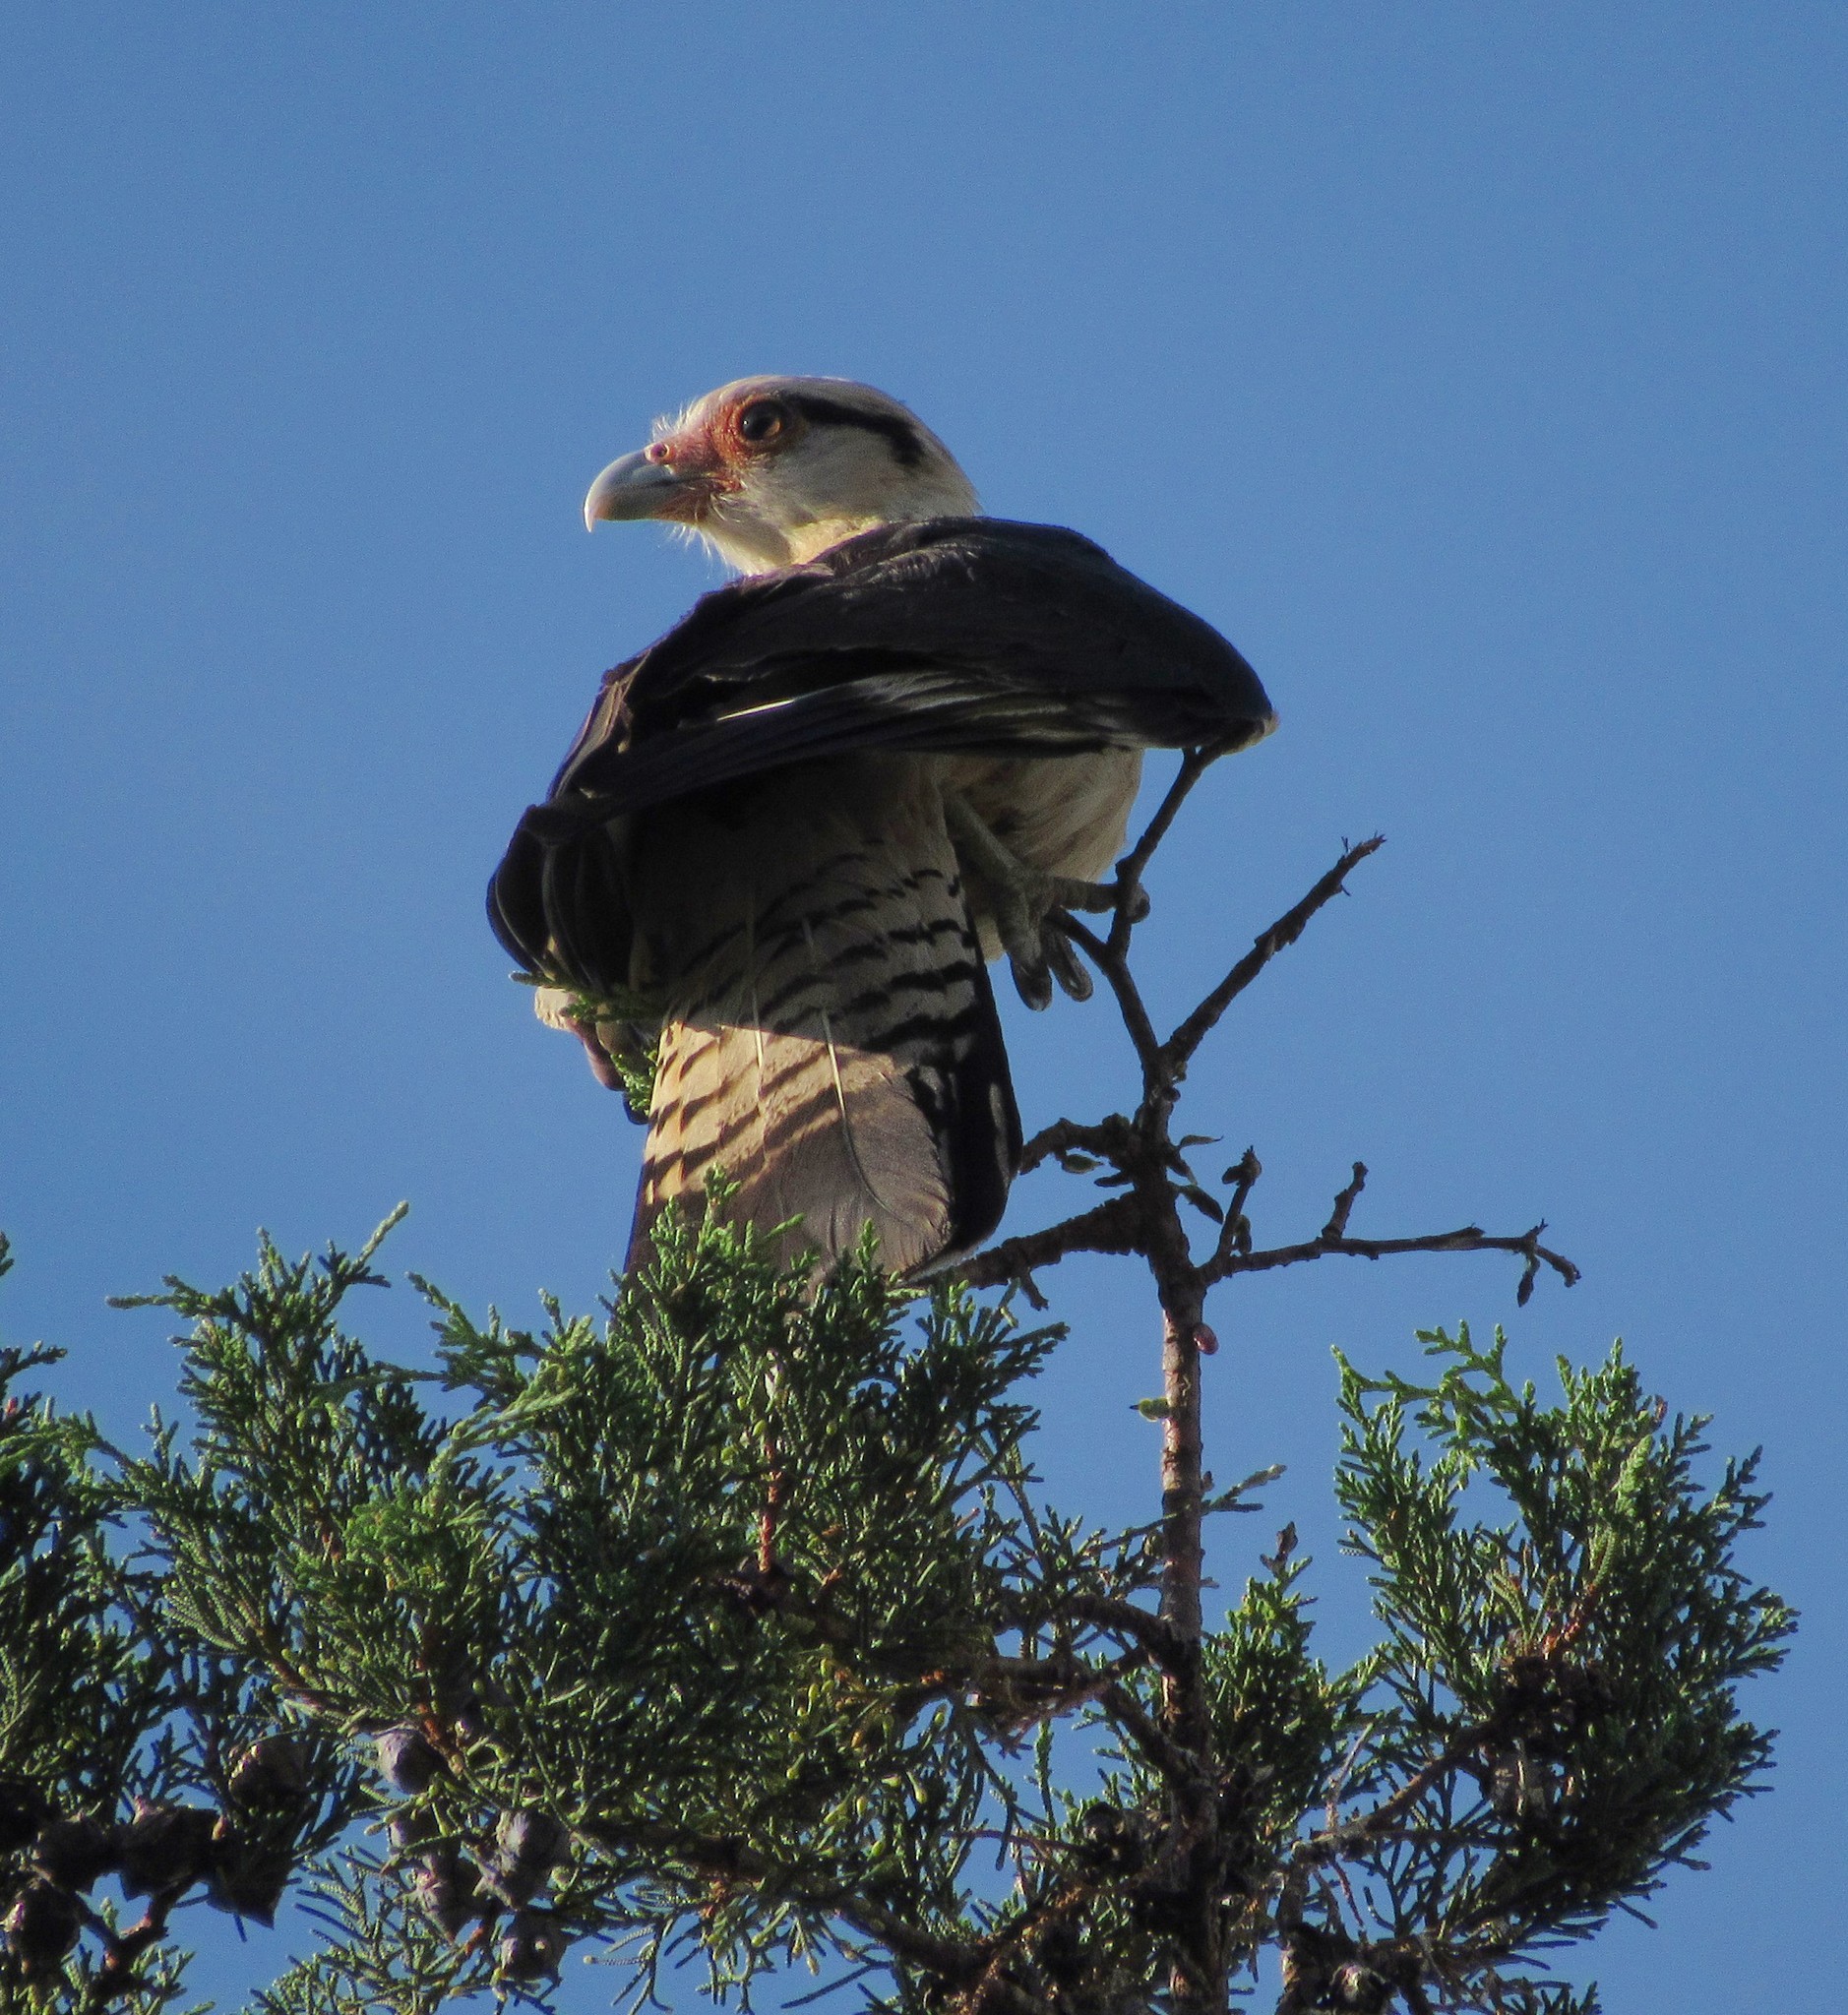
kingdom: Animalia
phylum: Chordata
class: Aves
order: Falconiformes
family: Falconidae
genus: Daptrius
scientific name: Daptrius
